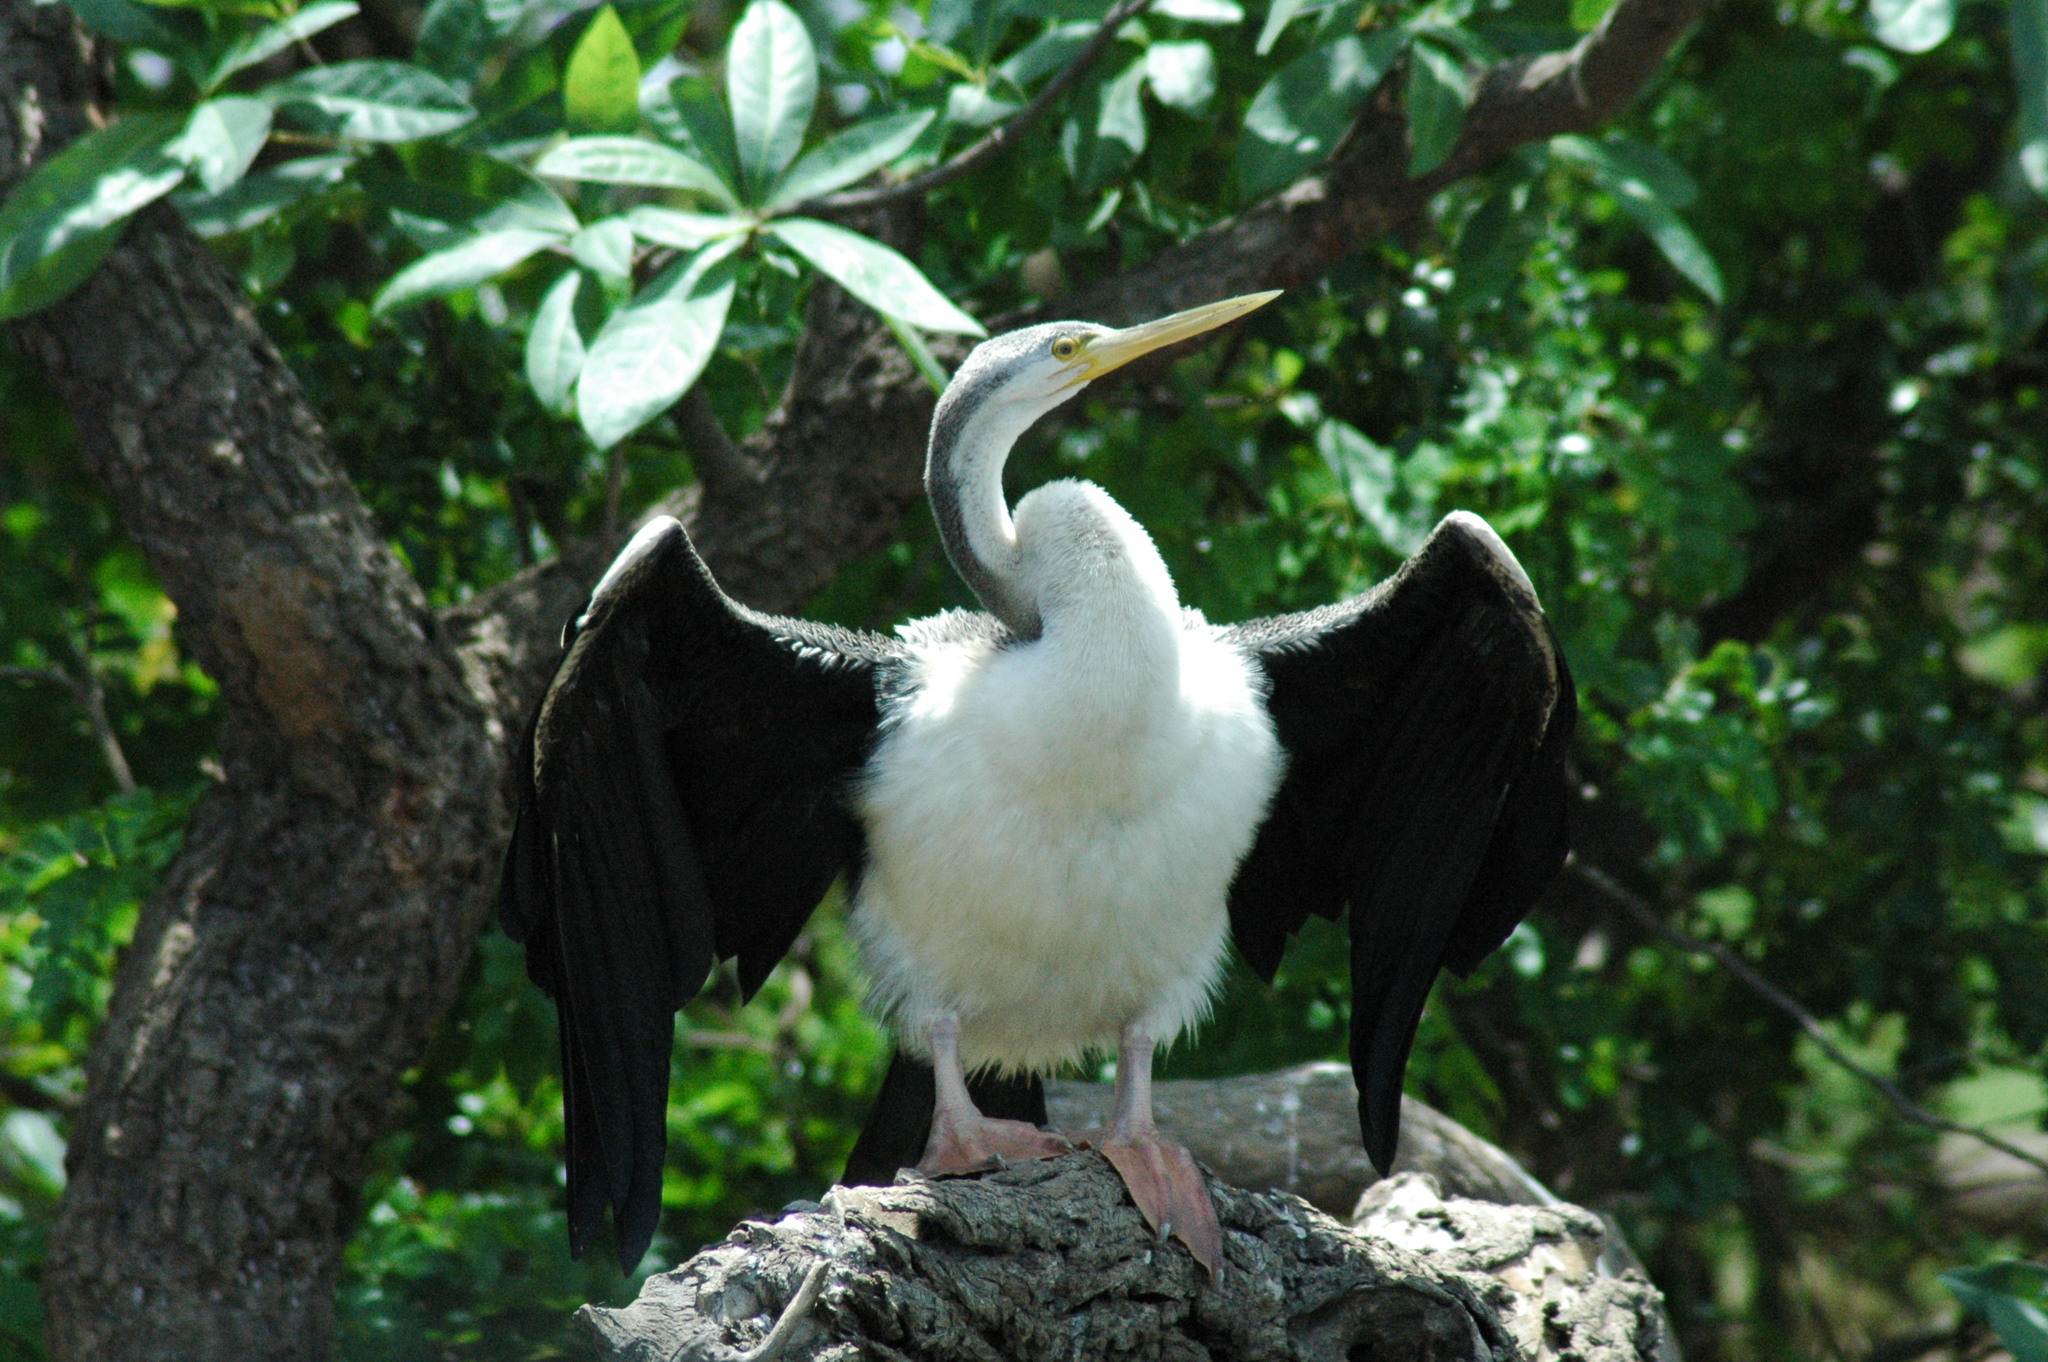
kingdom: Animalia
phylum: Chordata
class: Aves
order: Suliformes
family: Anhingidae
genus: Anhinga
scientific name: Anhinga novaehollandiae
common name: Australasian darter
